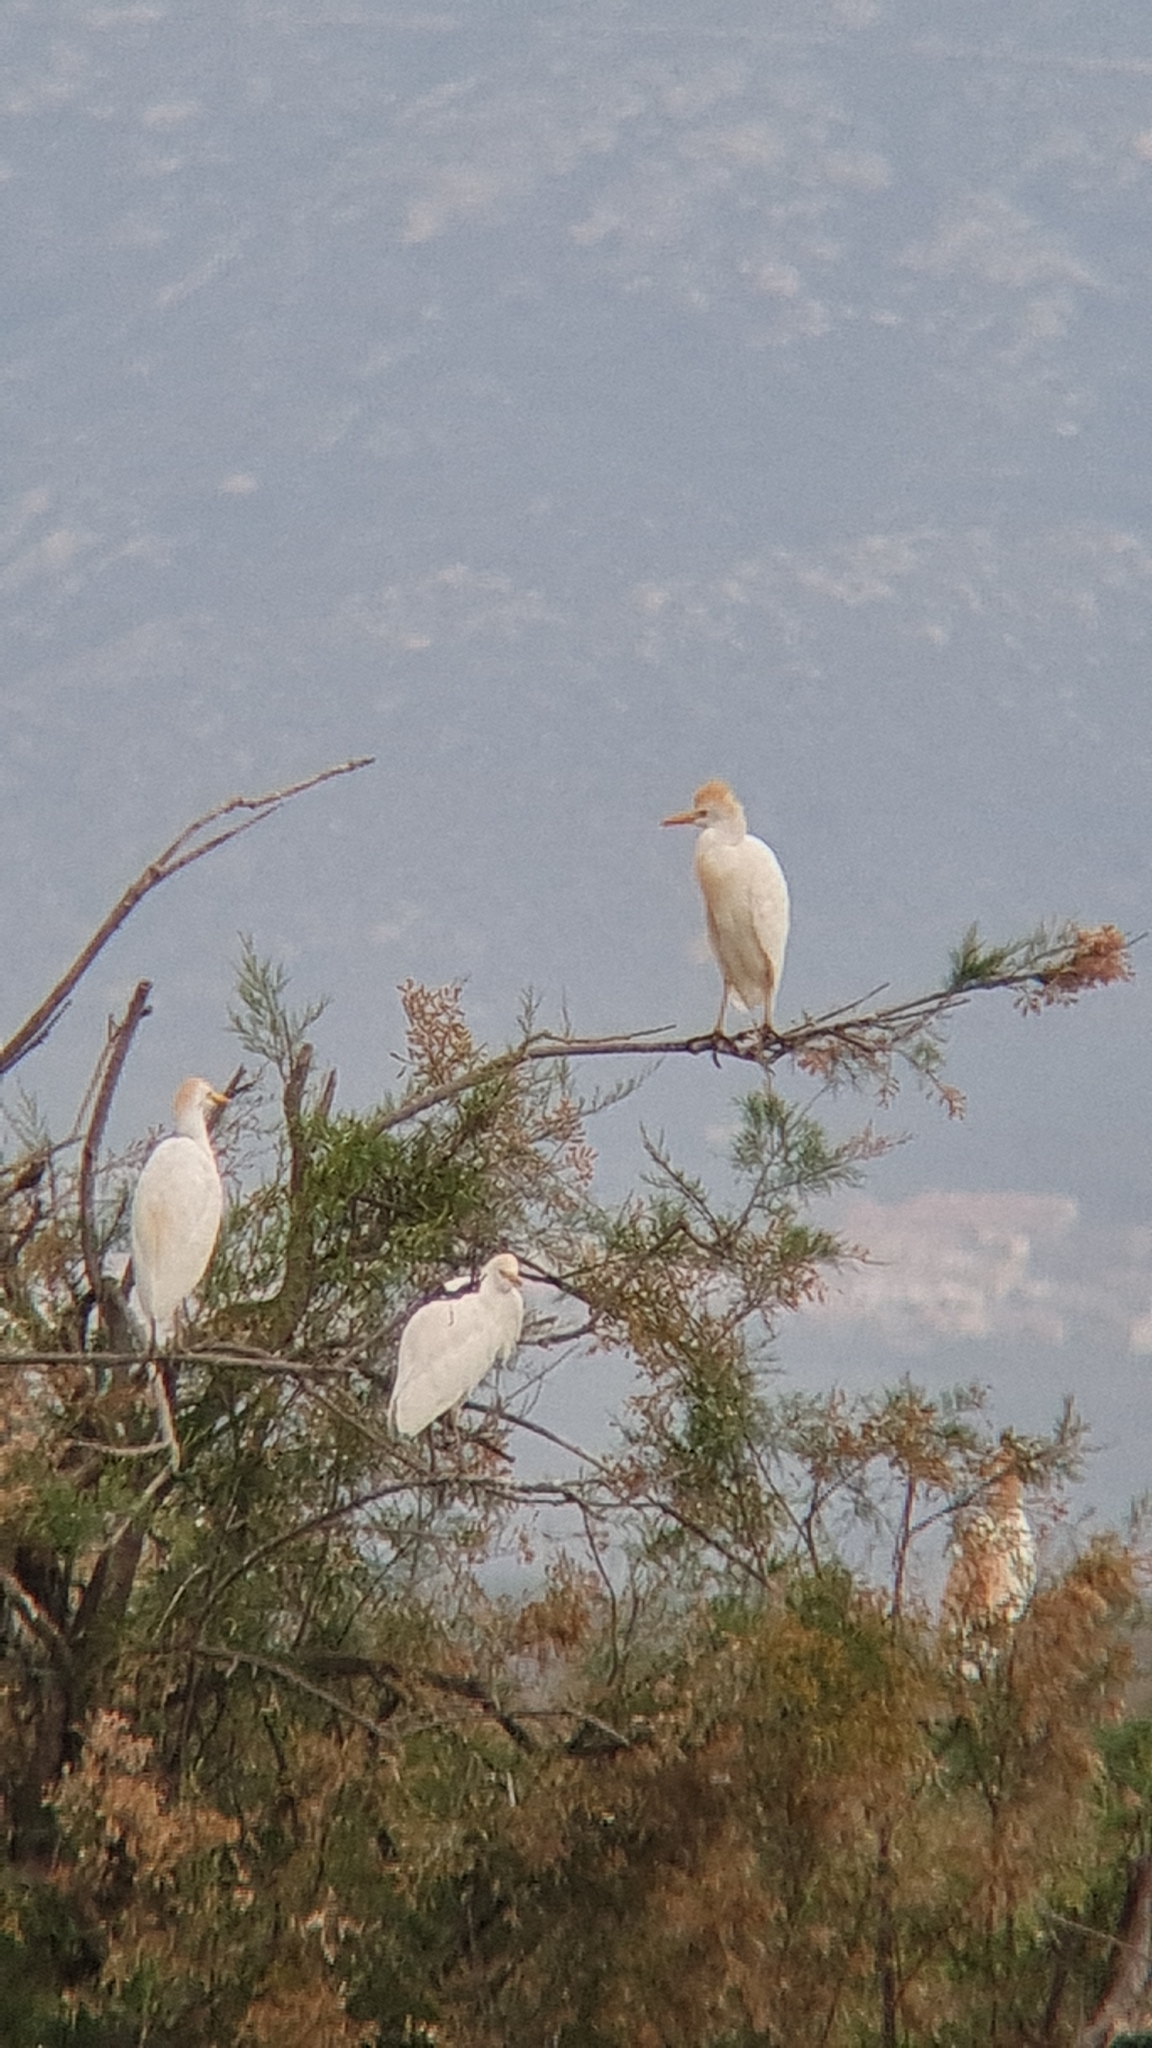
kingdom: Animalia
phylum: Chordata
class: Aves
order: Pelecaniformes
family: Ardeidae
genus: Bubulcus
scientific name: Bubulcus ibis
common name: Cattle egret
